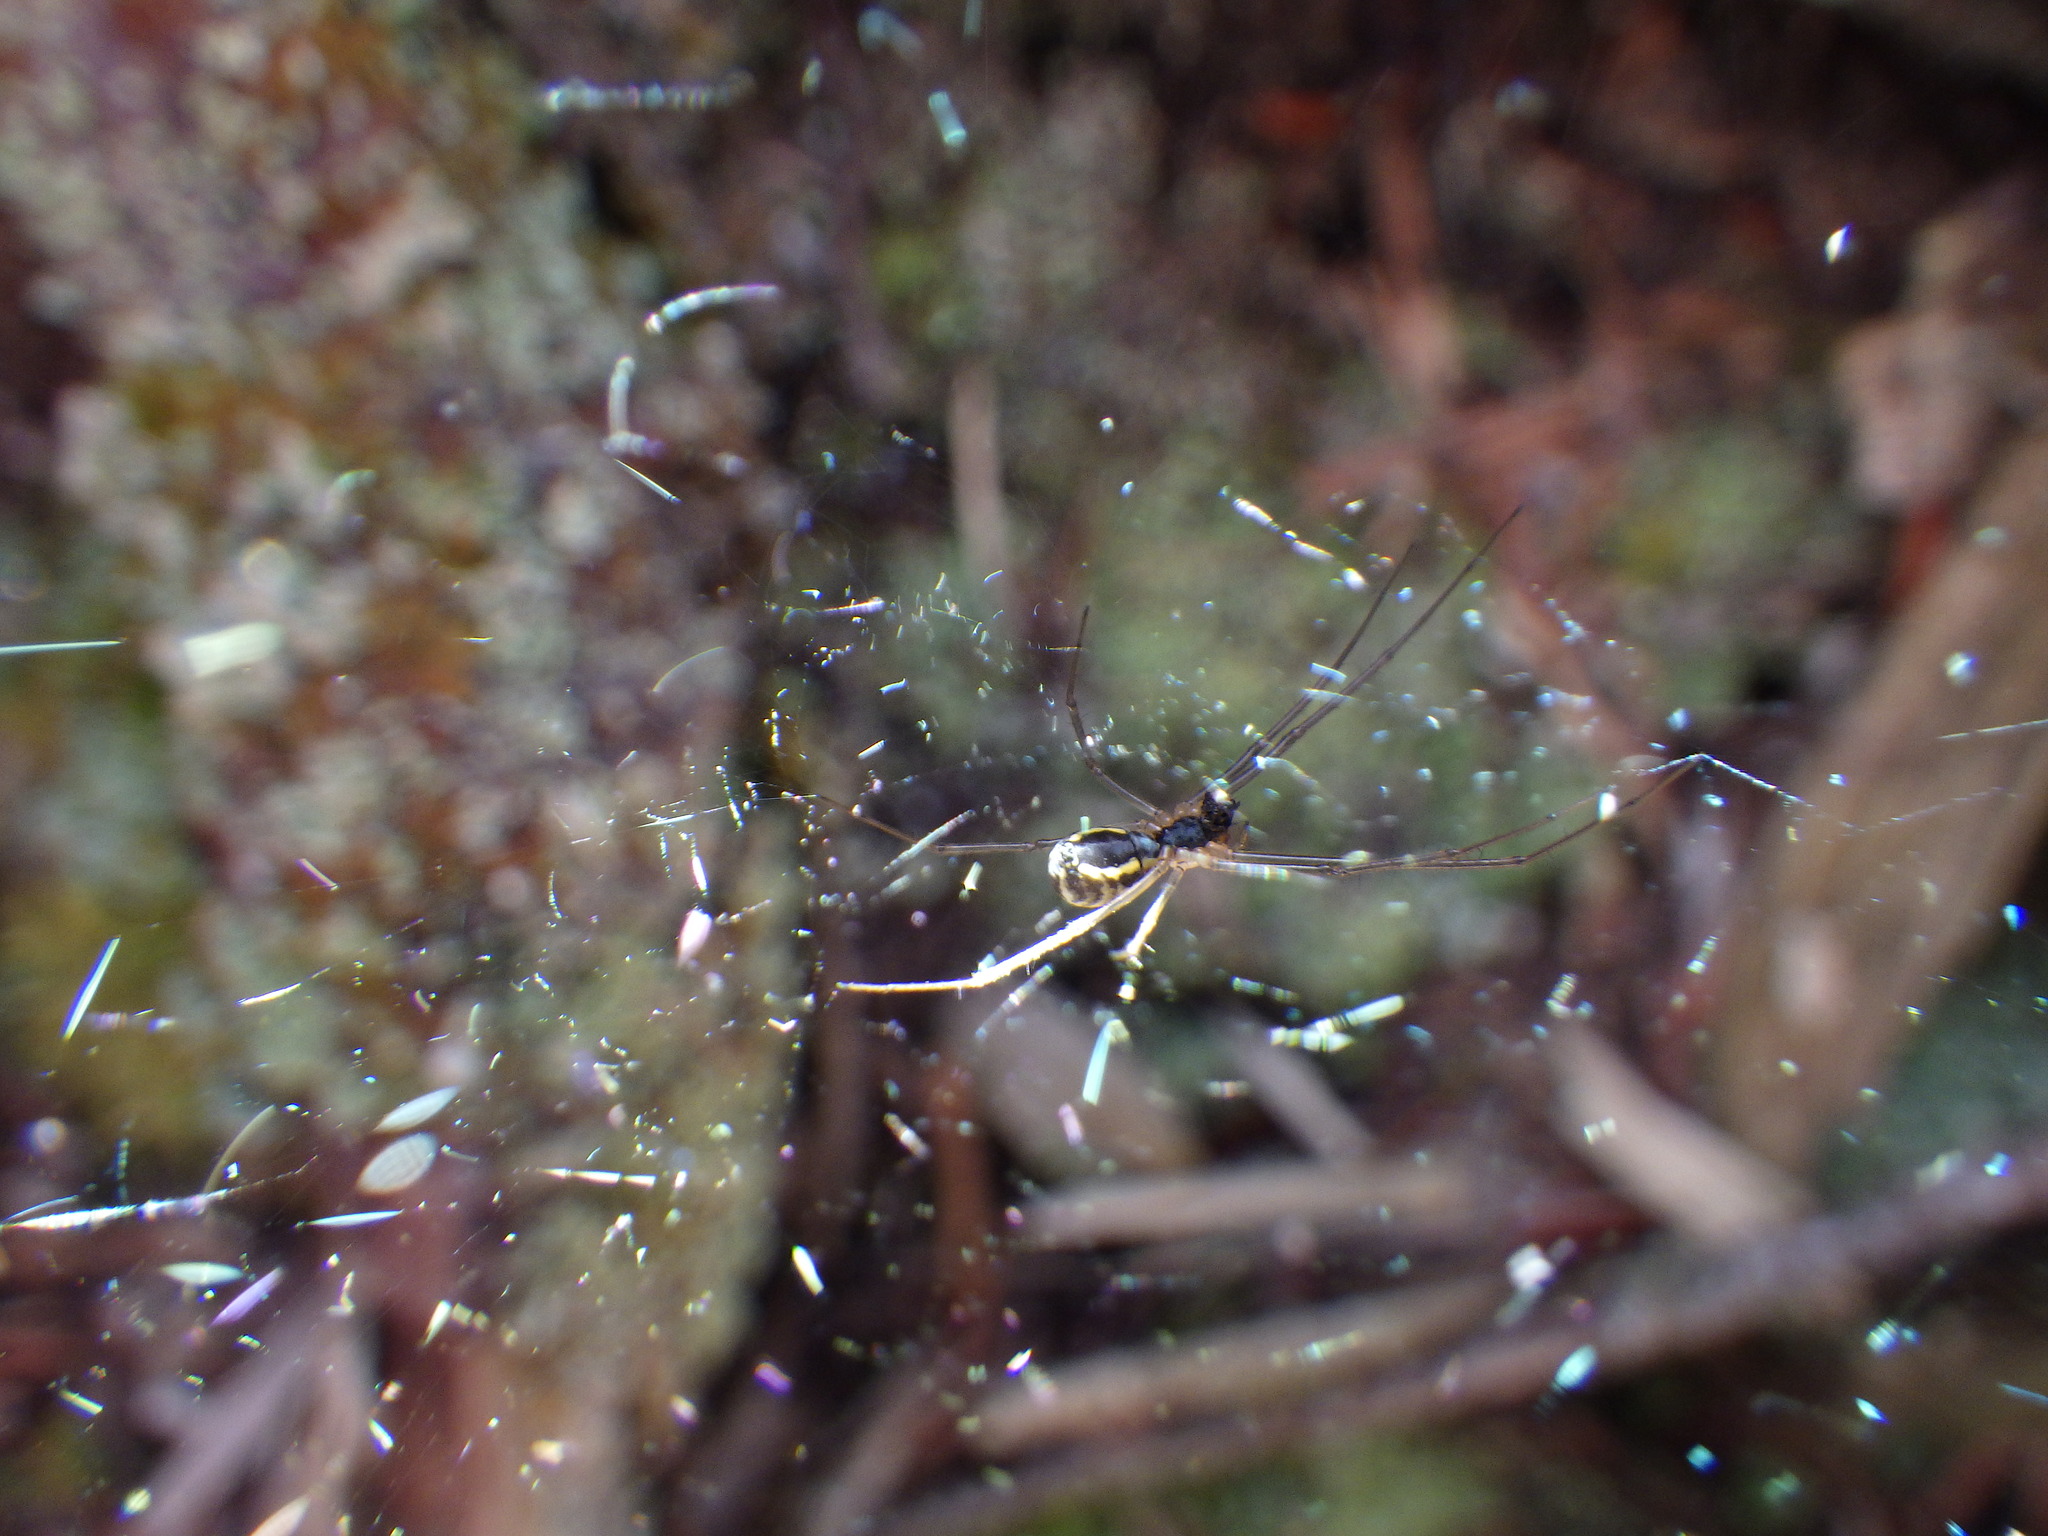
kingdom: Animalia
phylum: Arthropoda
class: Arachnida
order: Araneae
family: Linyphiidae
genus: Neriene
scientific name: Neriene radiata
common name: Filmy dome spider
